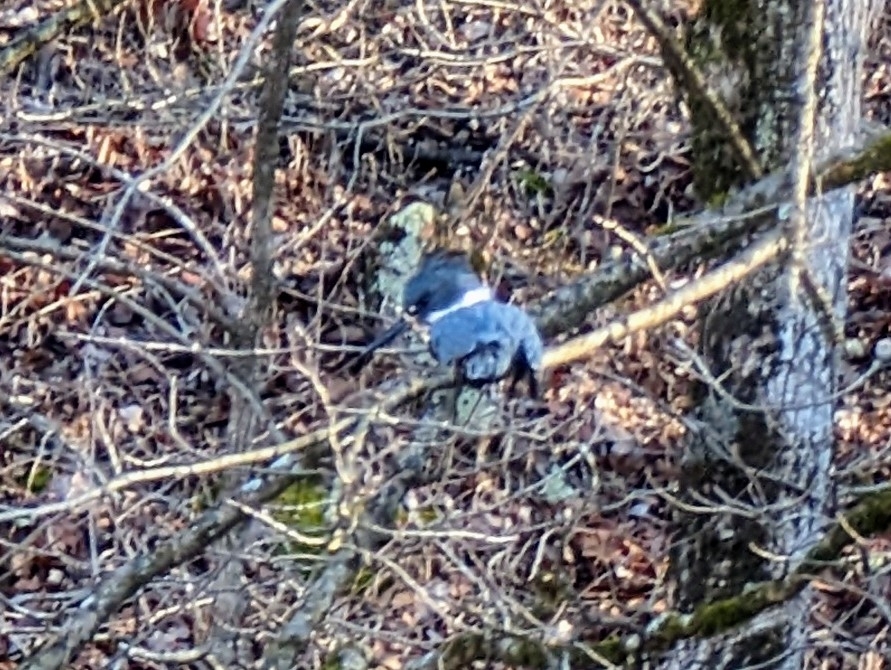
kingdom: Animalia
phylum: Chordata
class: Aves
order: Coraciiformes
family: Alcedinidae
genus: Megaceryle
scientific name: Megaceryle alcyon
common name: Belted kingfisher
